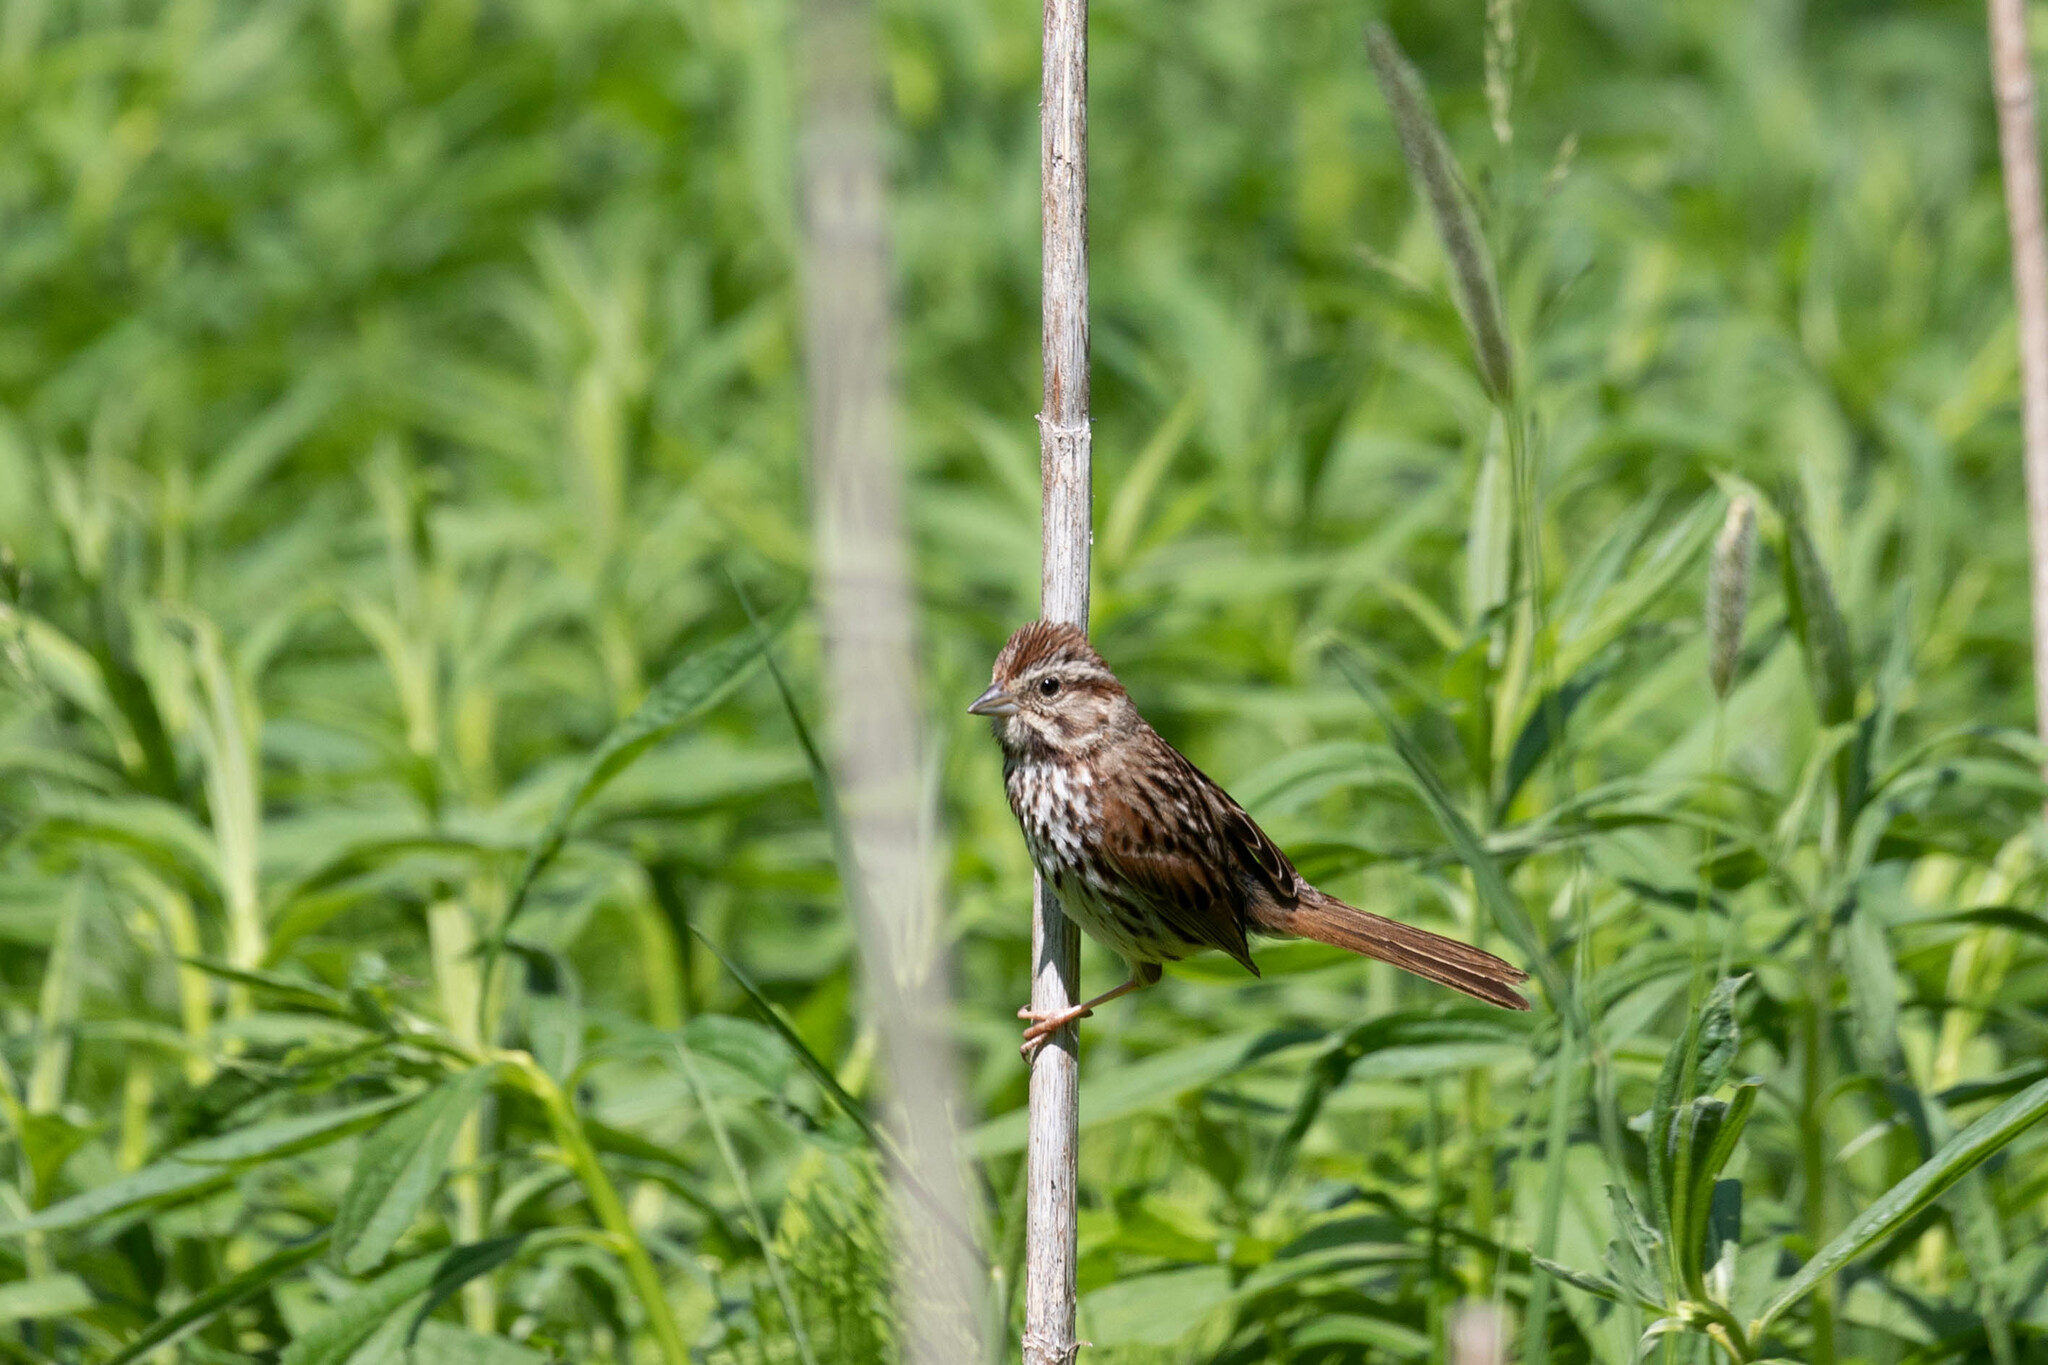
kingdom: Animalia
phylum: Chordata
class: Aves
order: Passeriformes
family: Passerellidae
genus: Melospiza
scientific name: Melospiza melodia
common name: Song sparrow
